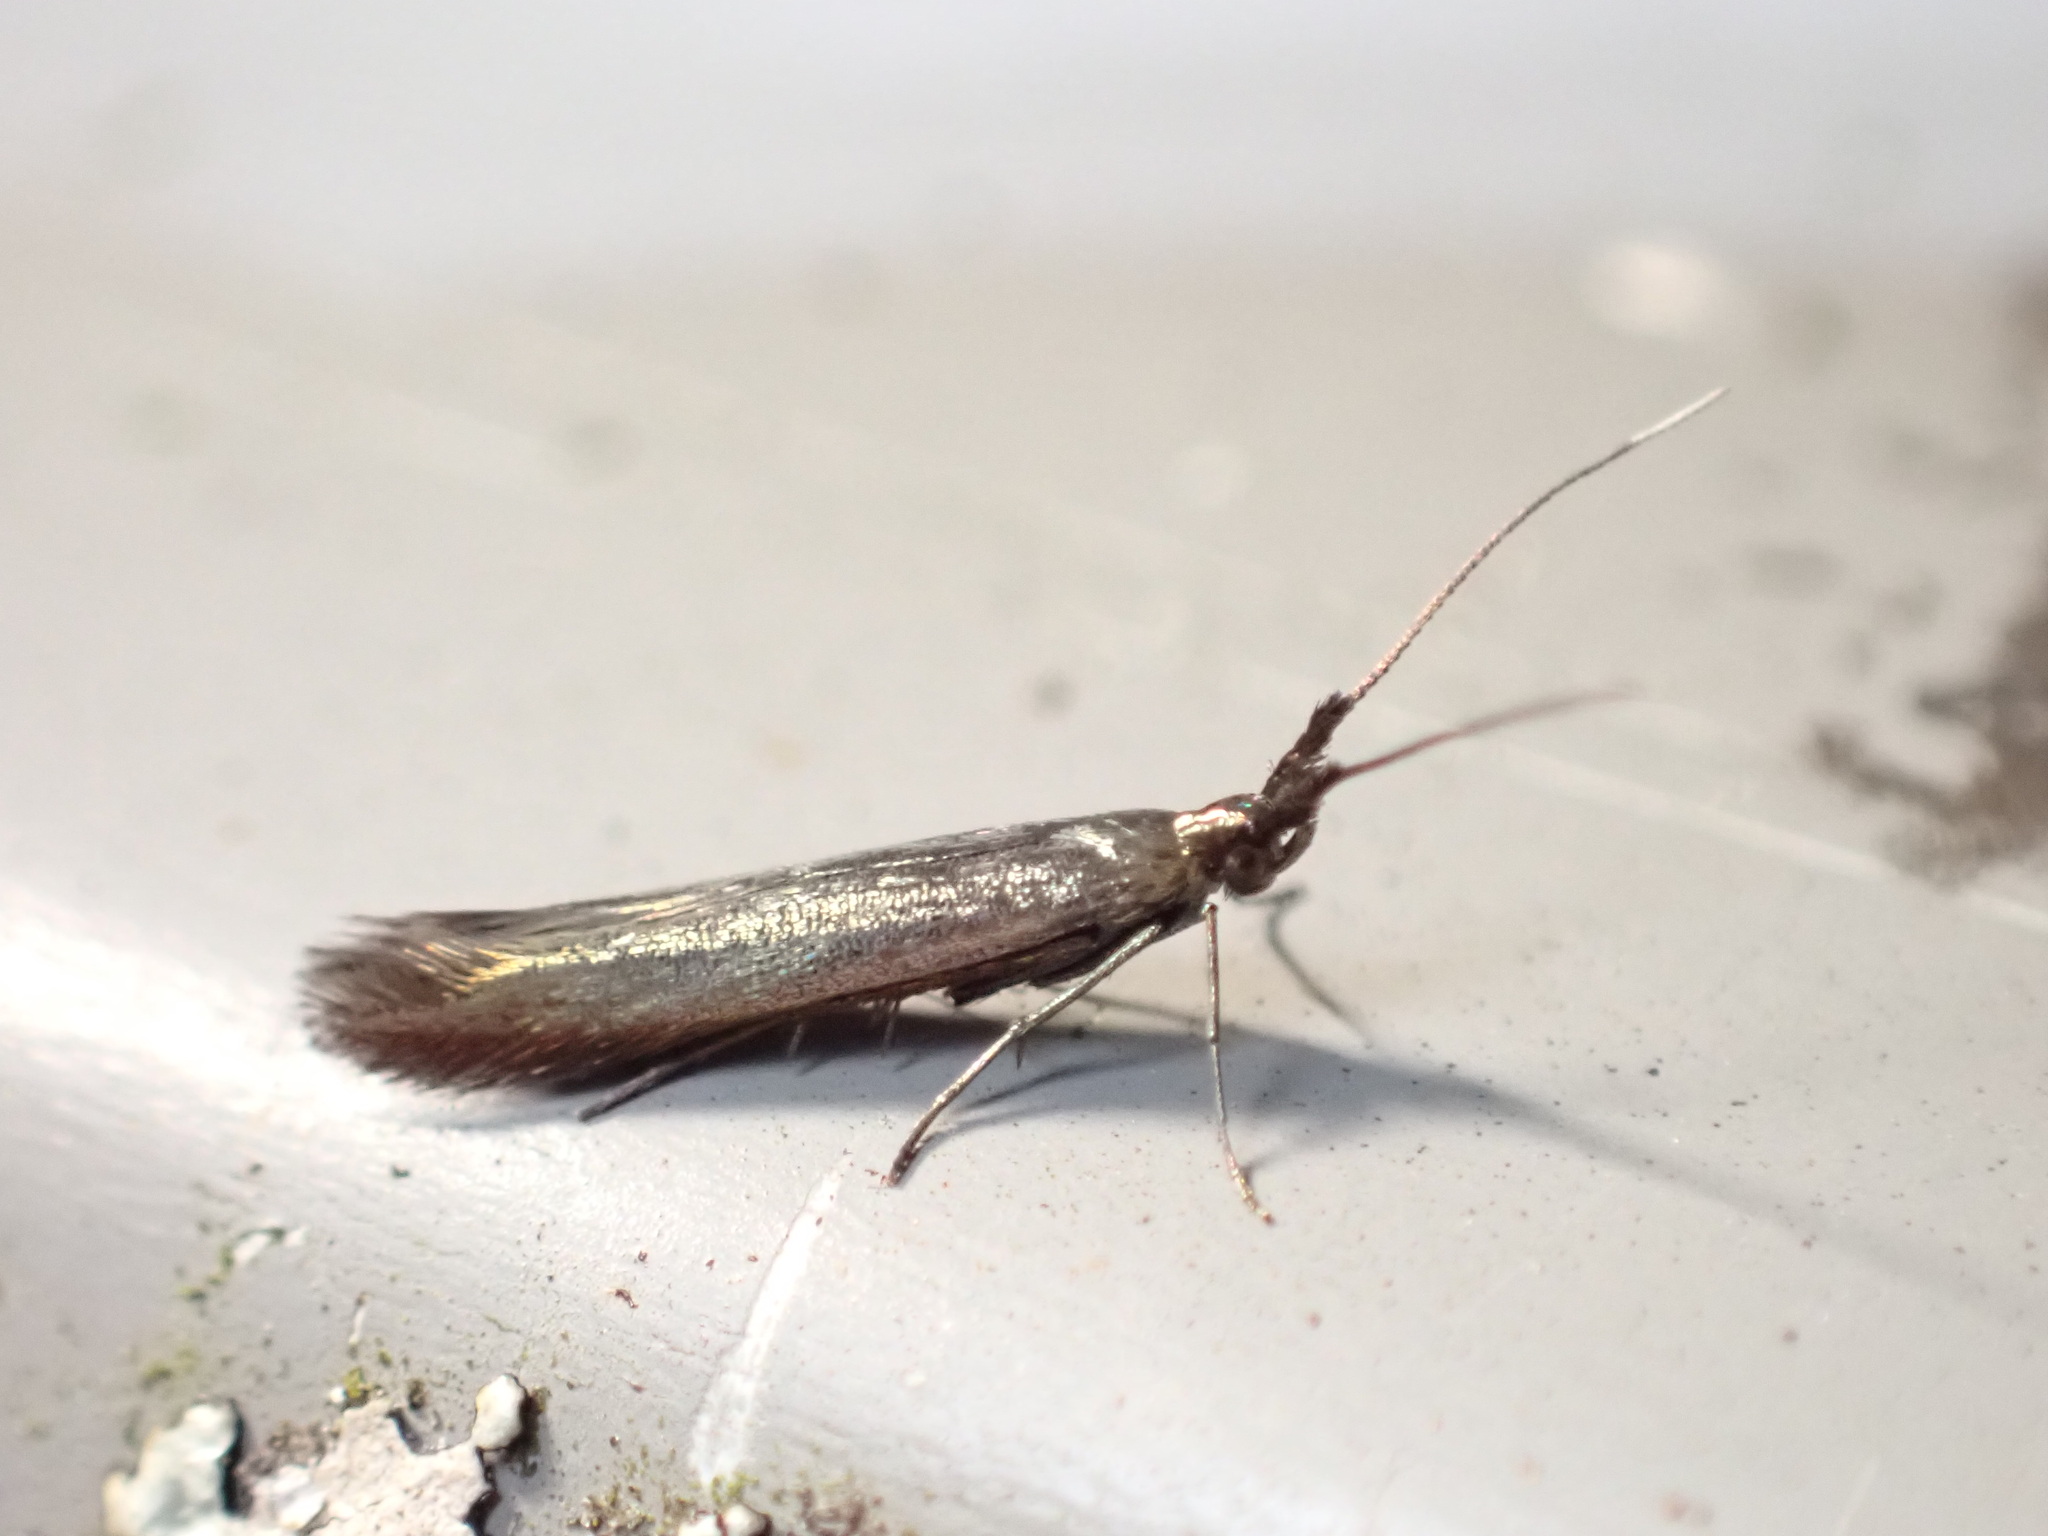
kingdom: Animalia
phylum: Arthropoda
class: Insecta
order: Lepidoptera
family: Coleophoridae
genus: Coleophora
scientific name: Coleophora deauratella
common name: Red-clover case-bearer
